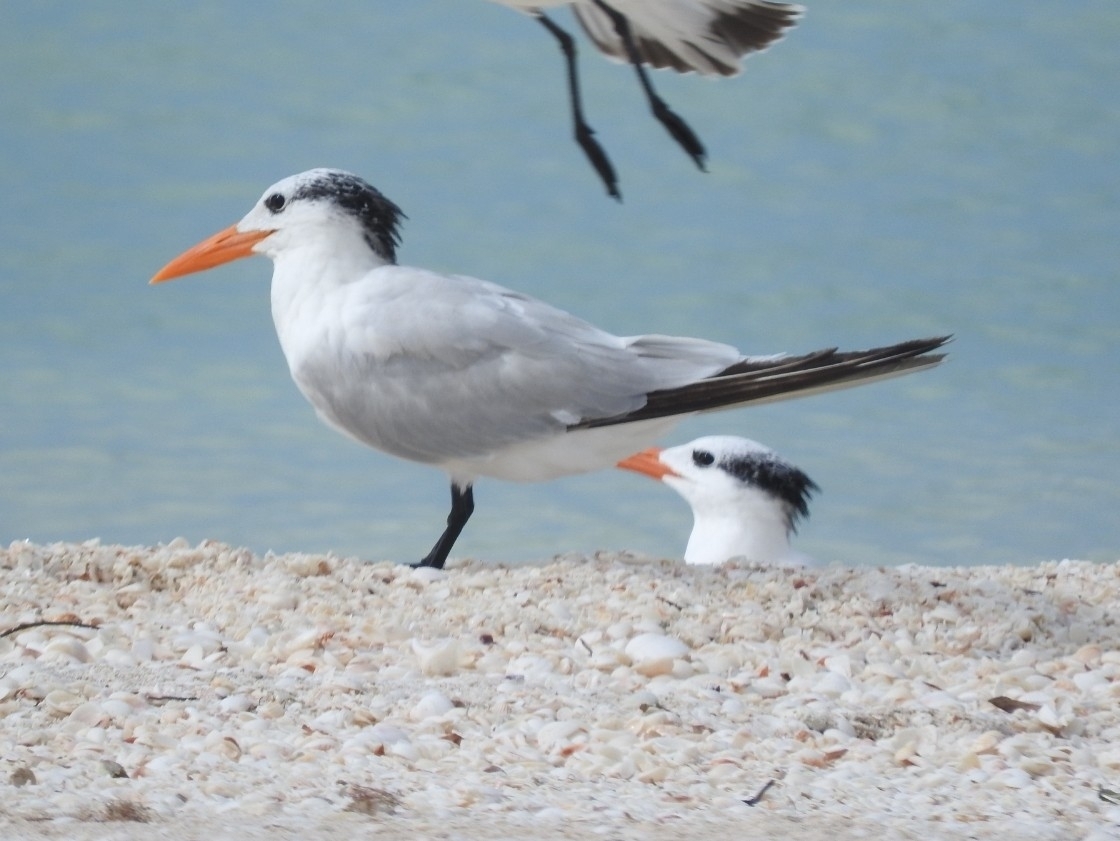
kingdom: Animalia
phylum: Chordata
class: Aves
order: Charadriiformes
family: Laridae
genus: Thalasseus
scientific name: Thalasseus maximus
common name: Royal tern
